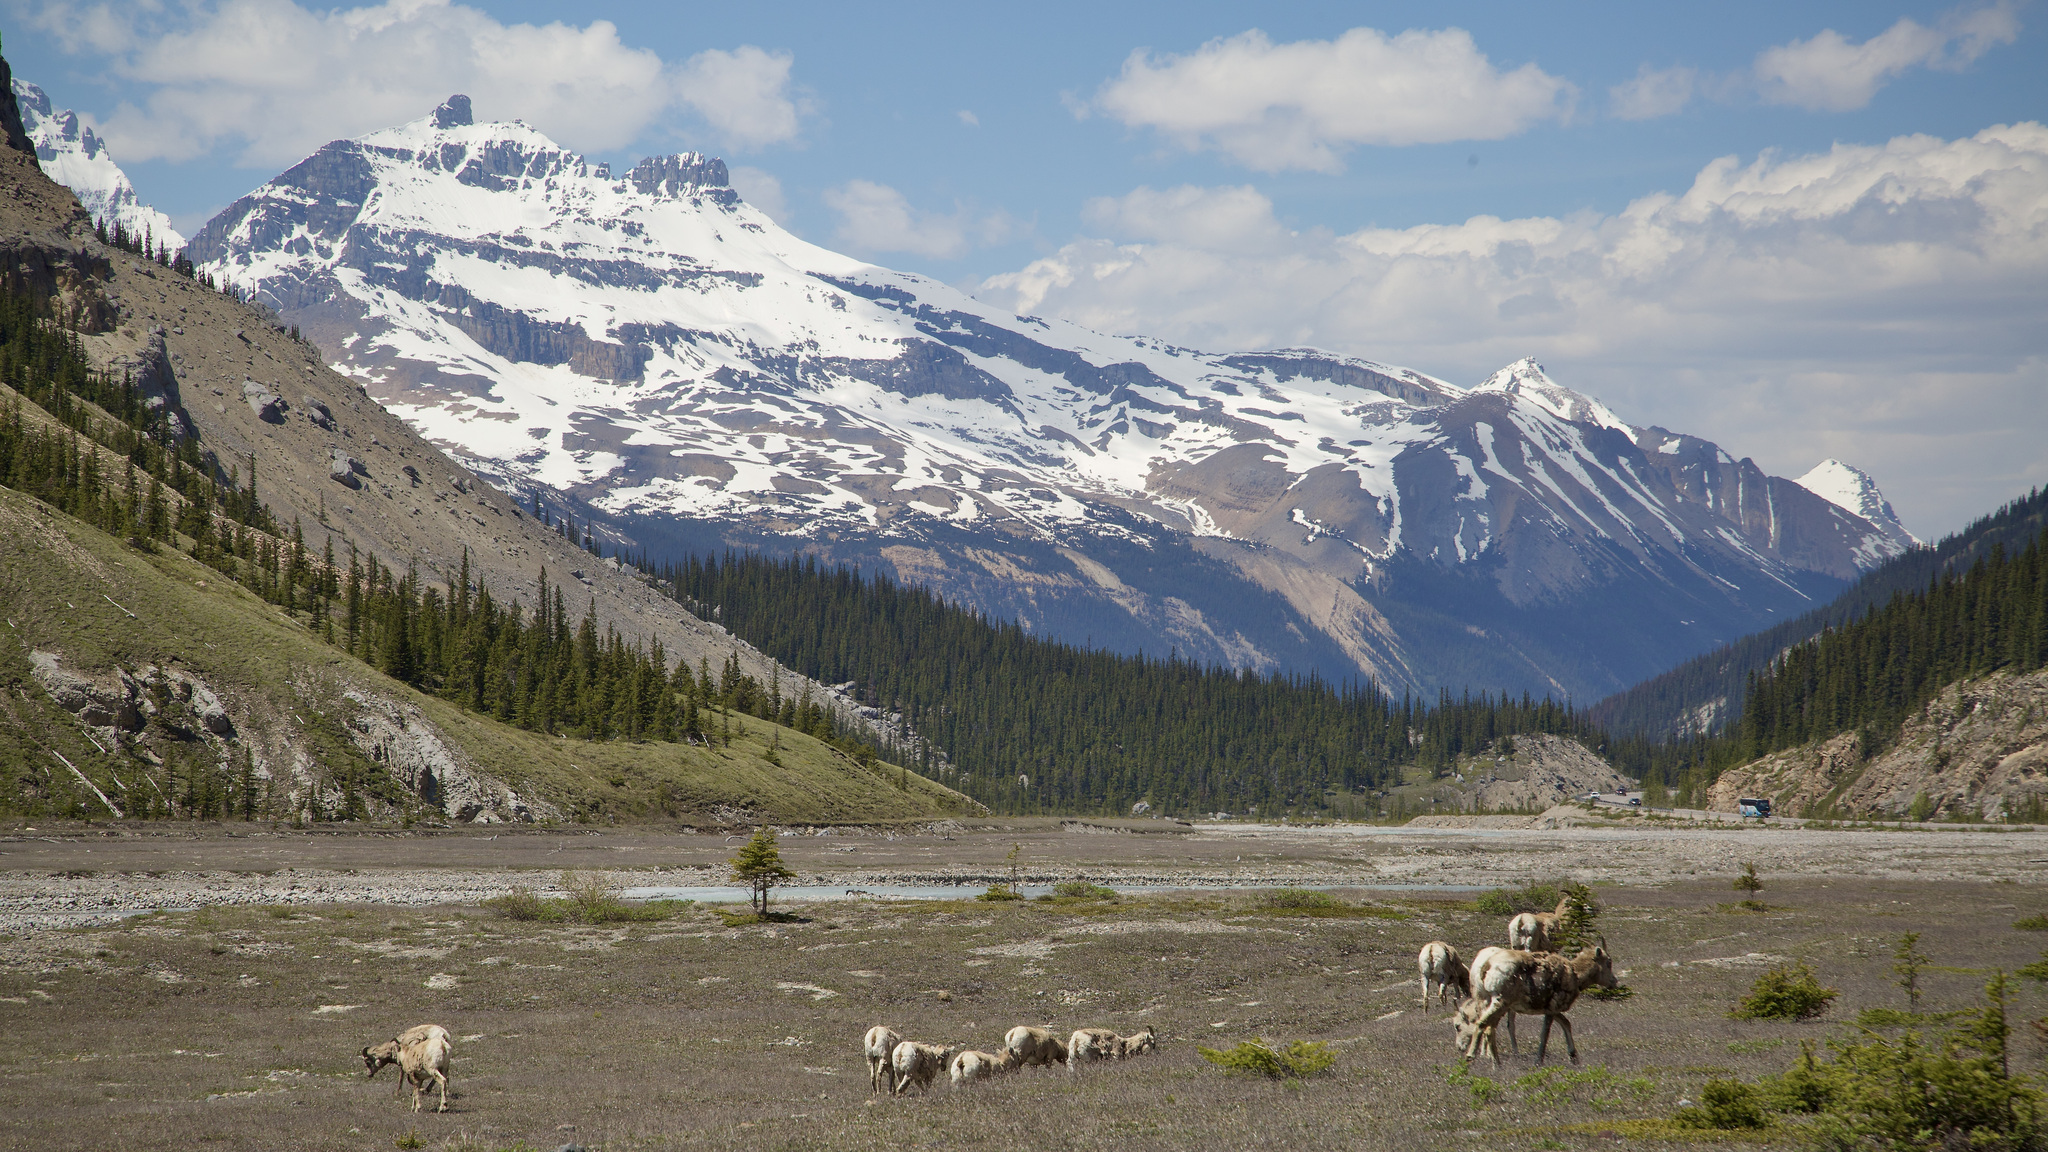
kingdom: Animalia
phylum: Chordata
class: Mammalia
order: Artiodactyla
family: Bovidae
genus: Ovis
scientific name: Ovis canadensis
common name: Bighorn sheep
